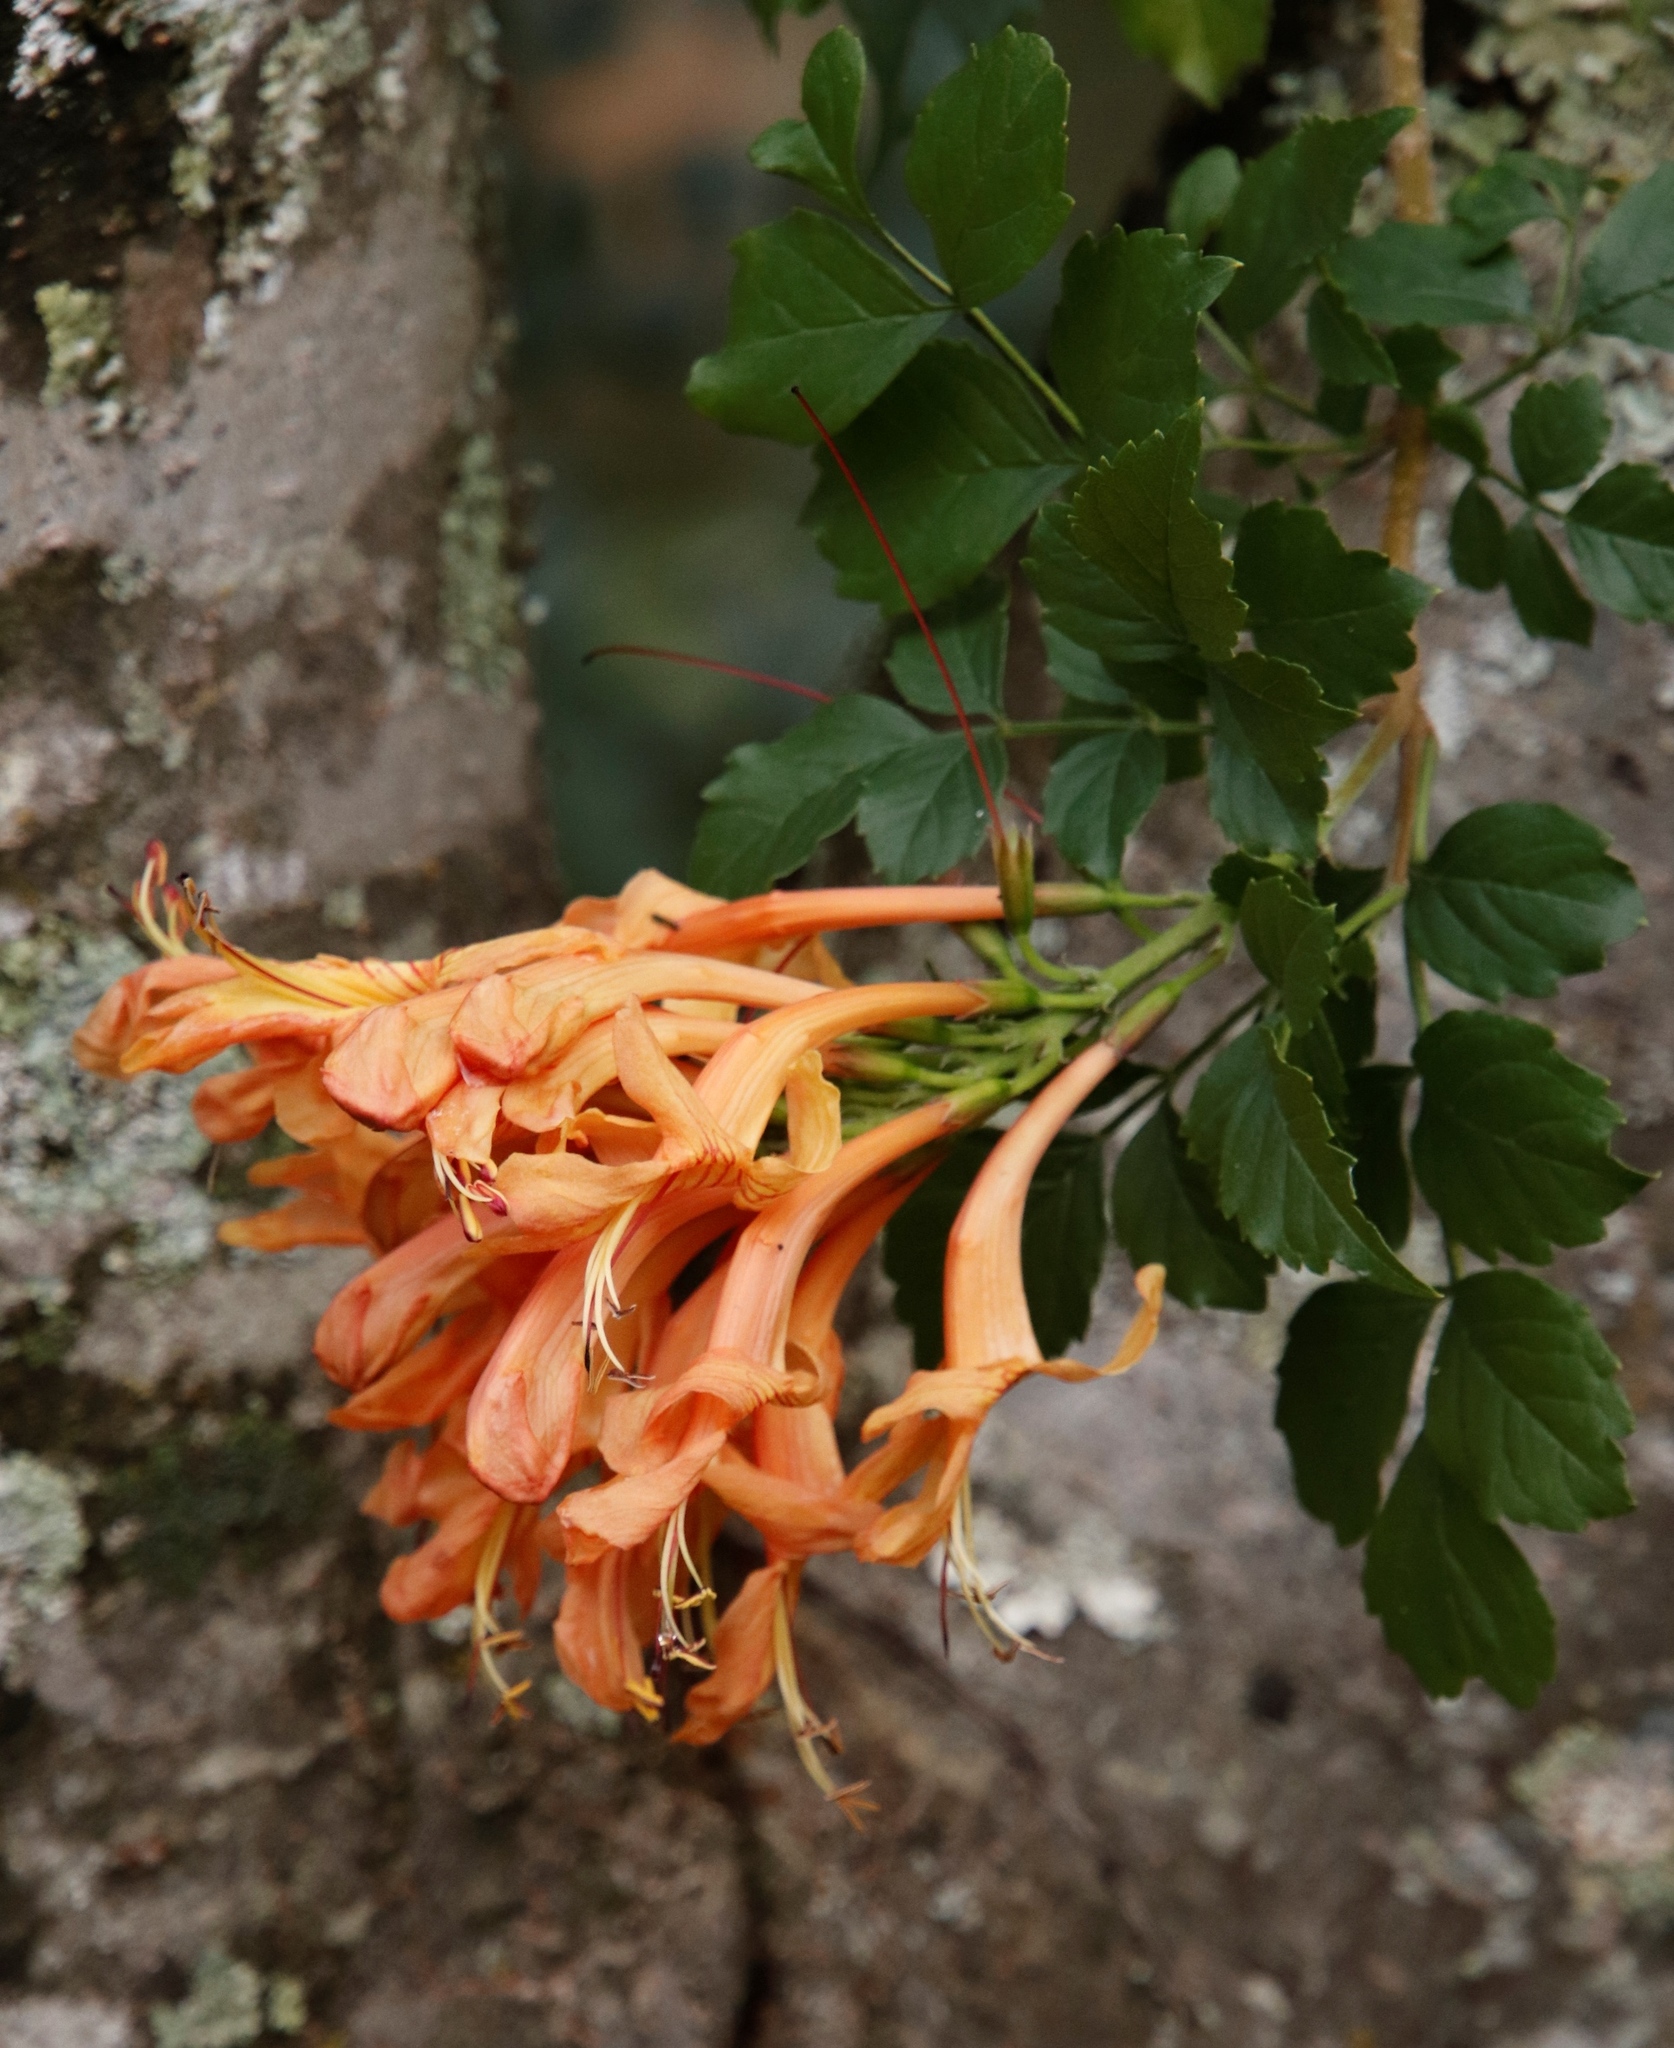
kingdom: Plantae
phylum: Tracheophyta
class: Magnoliopsida
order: Lamiales
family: Bignoniaceae
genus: Tecomaria
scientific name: Tecomaria capensis
